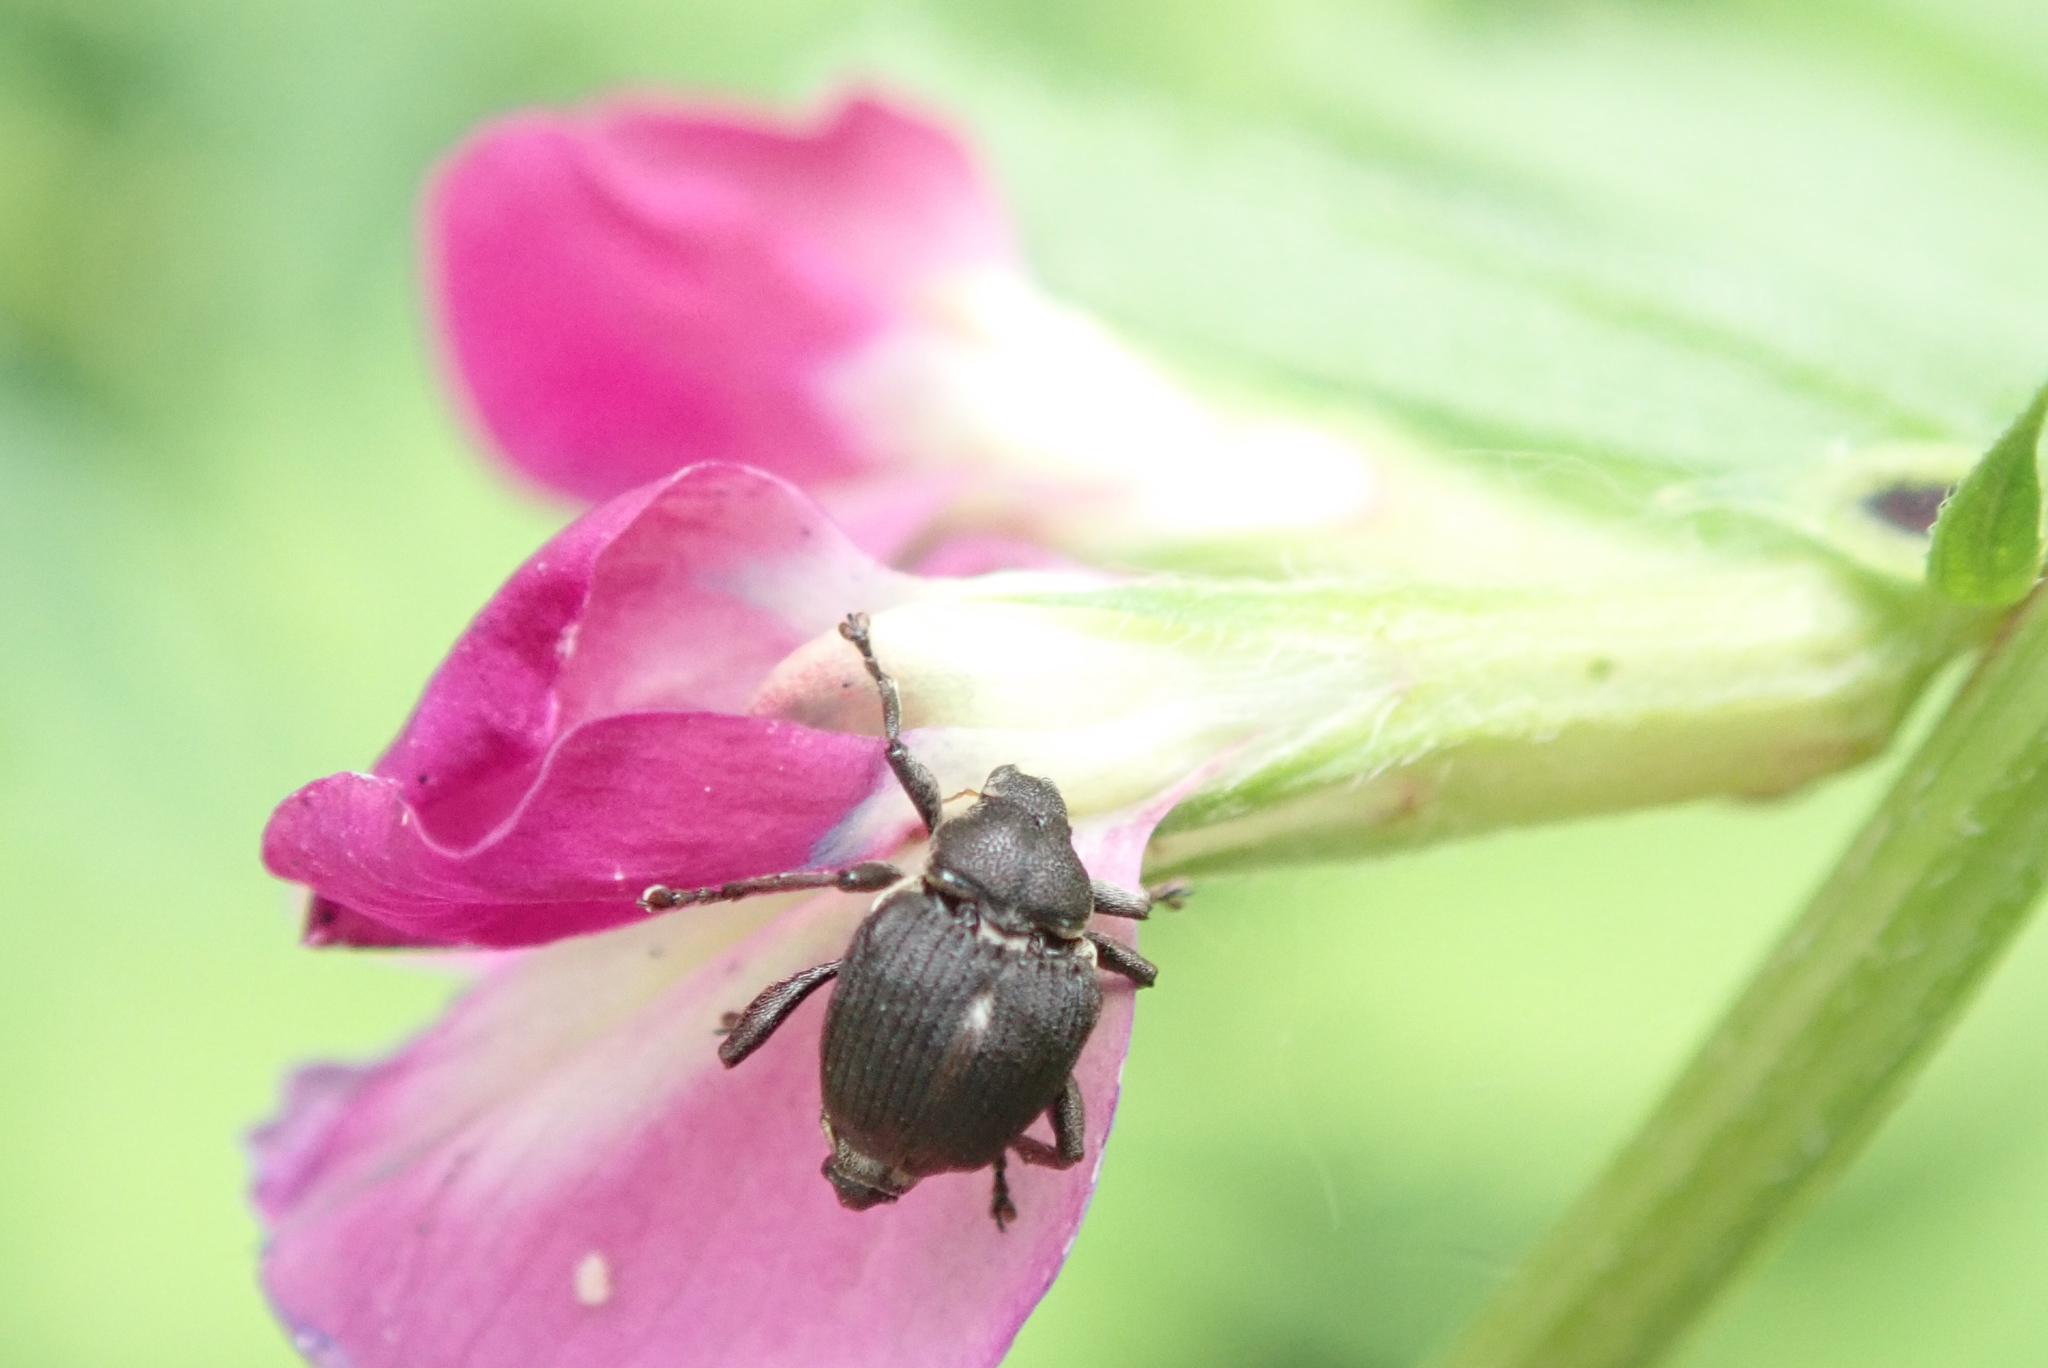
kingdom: Animalia
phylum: Arthropoda
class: Insecta
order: Coleoptera
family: Curculionidae
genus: Mononychus
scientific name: Mononychus punctumalbum
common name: Iris weevil
